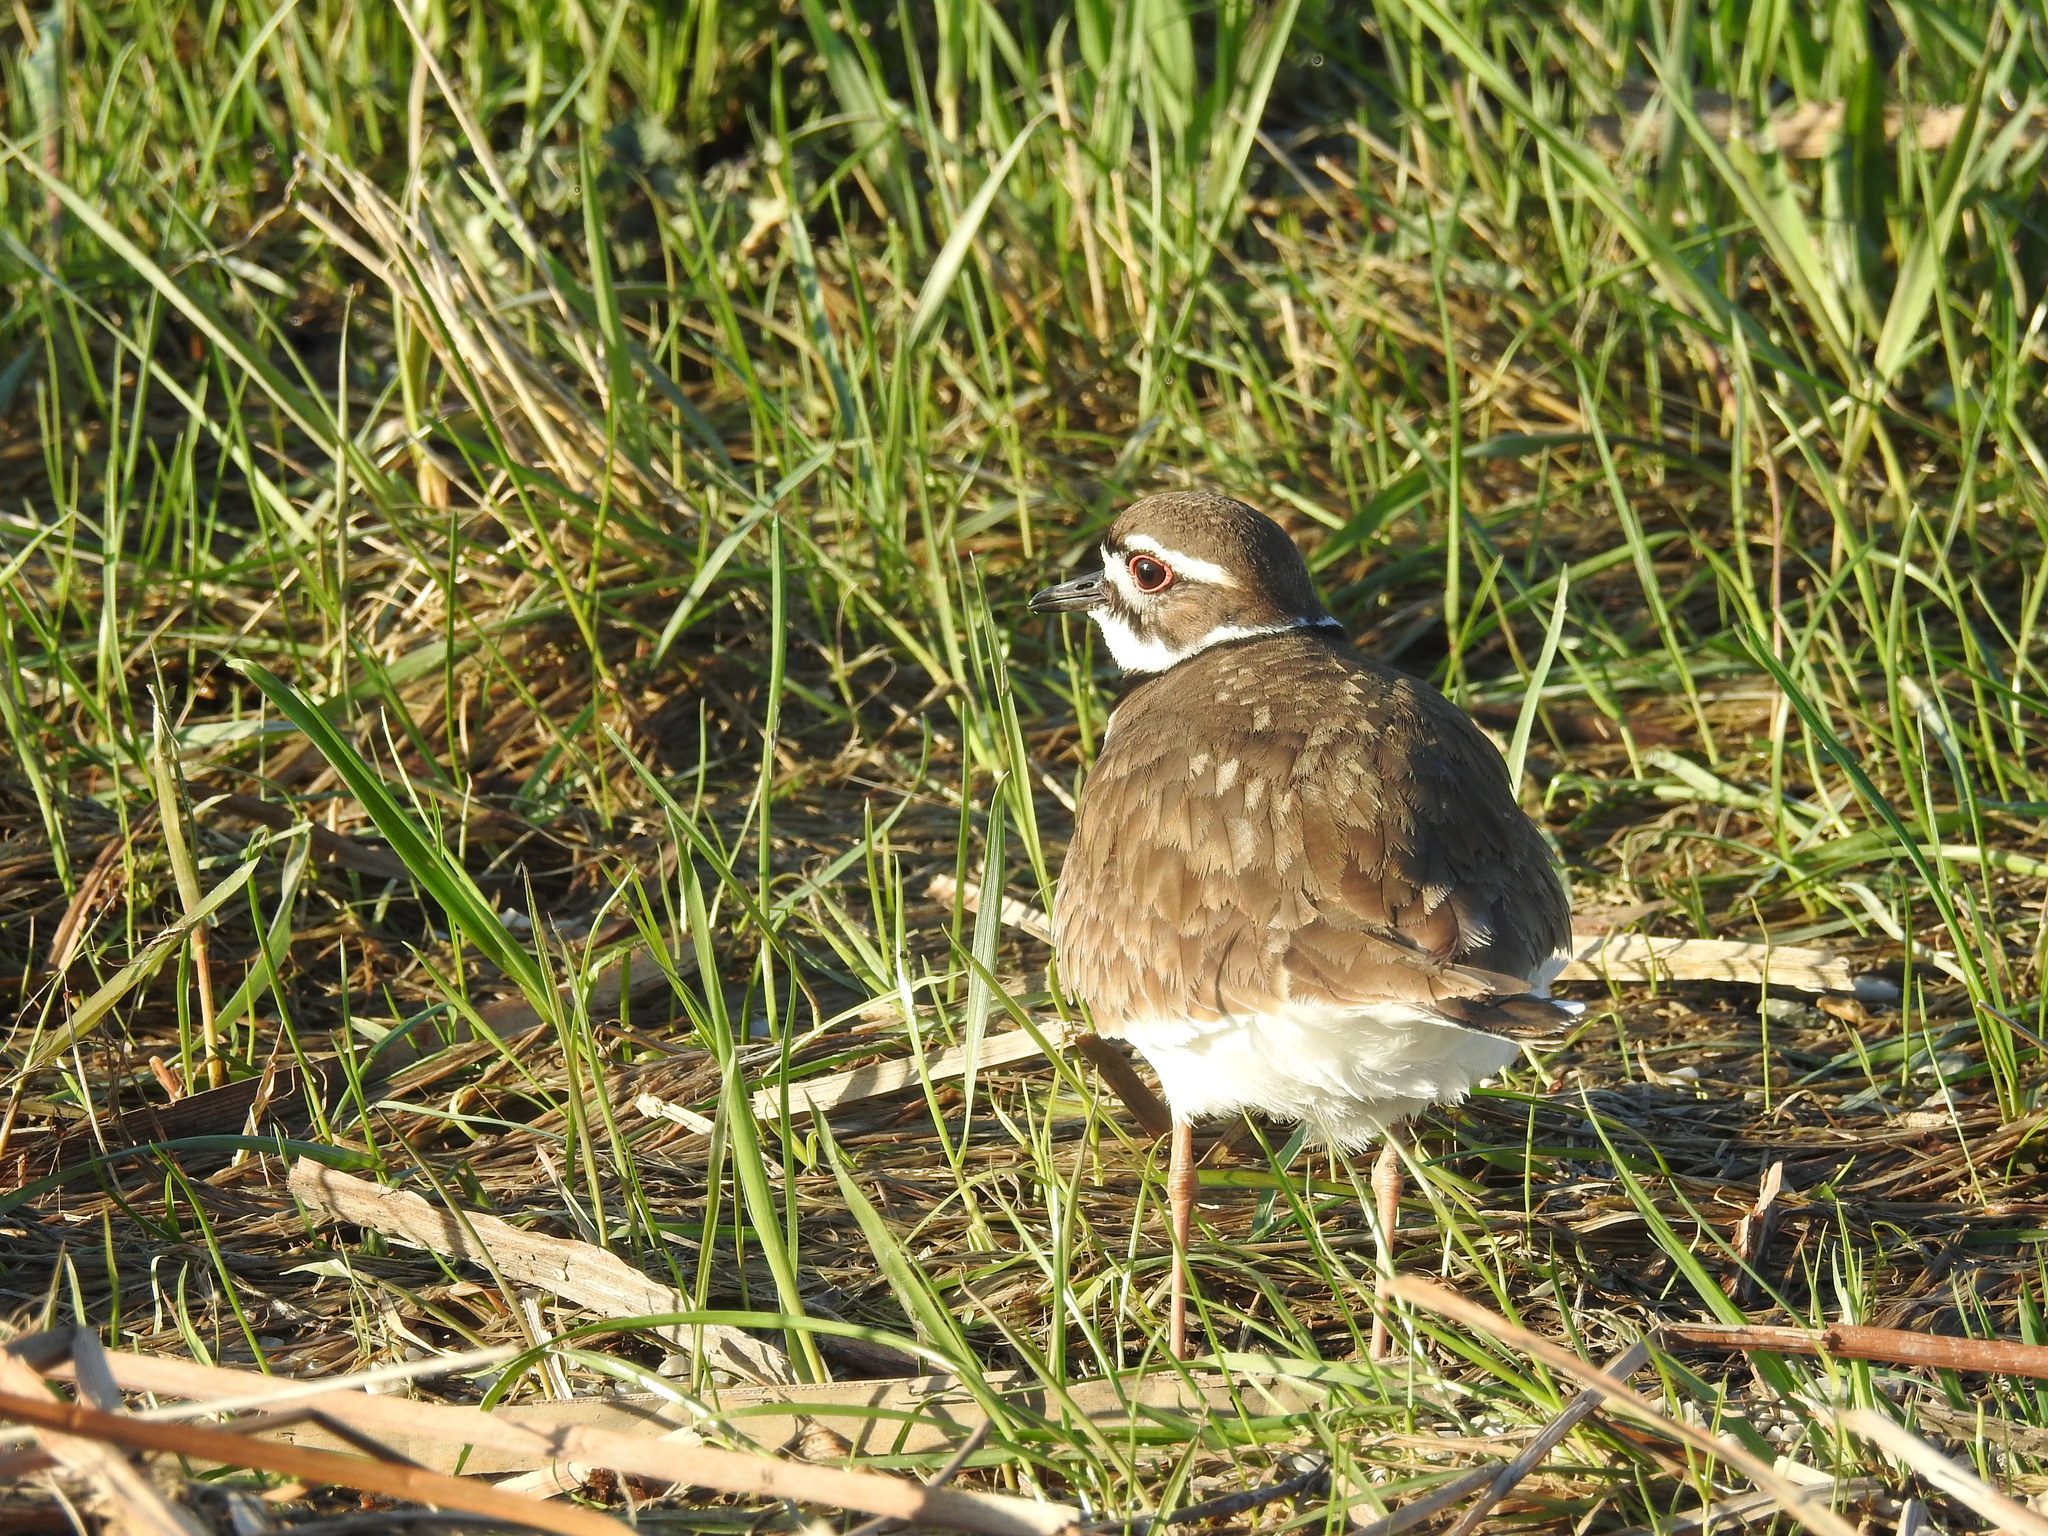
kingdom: Animalia
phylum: Chordata
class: Aves
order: Charadriiformes
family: Charadriidae
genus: Charadrius
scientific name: Charadrius vociferus
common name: Killdeer
